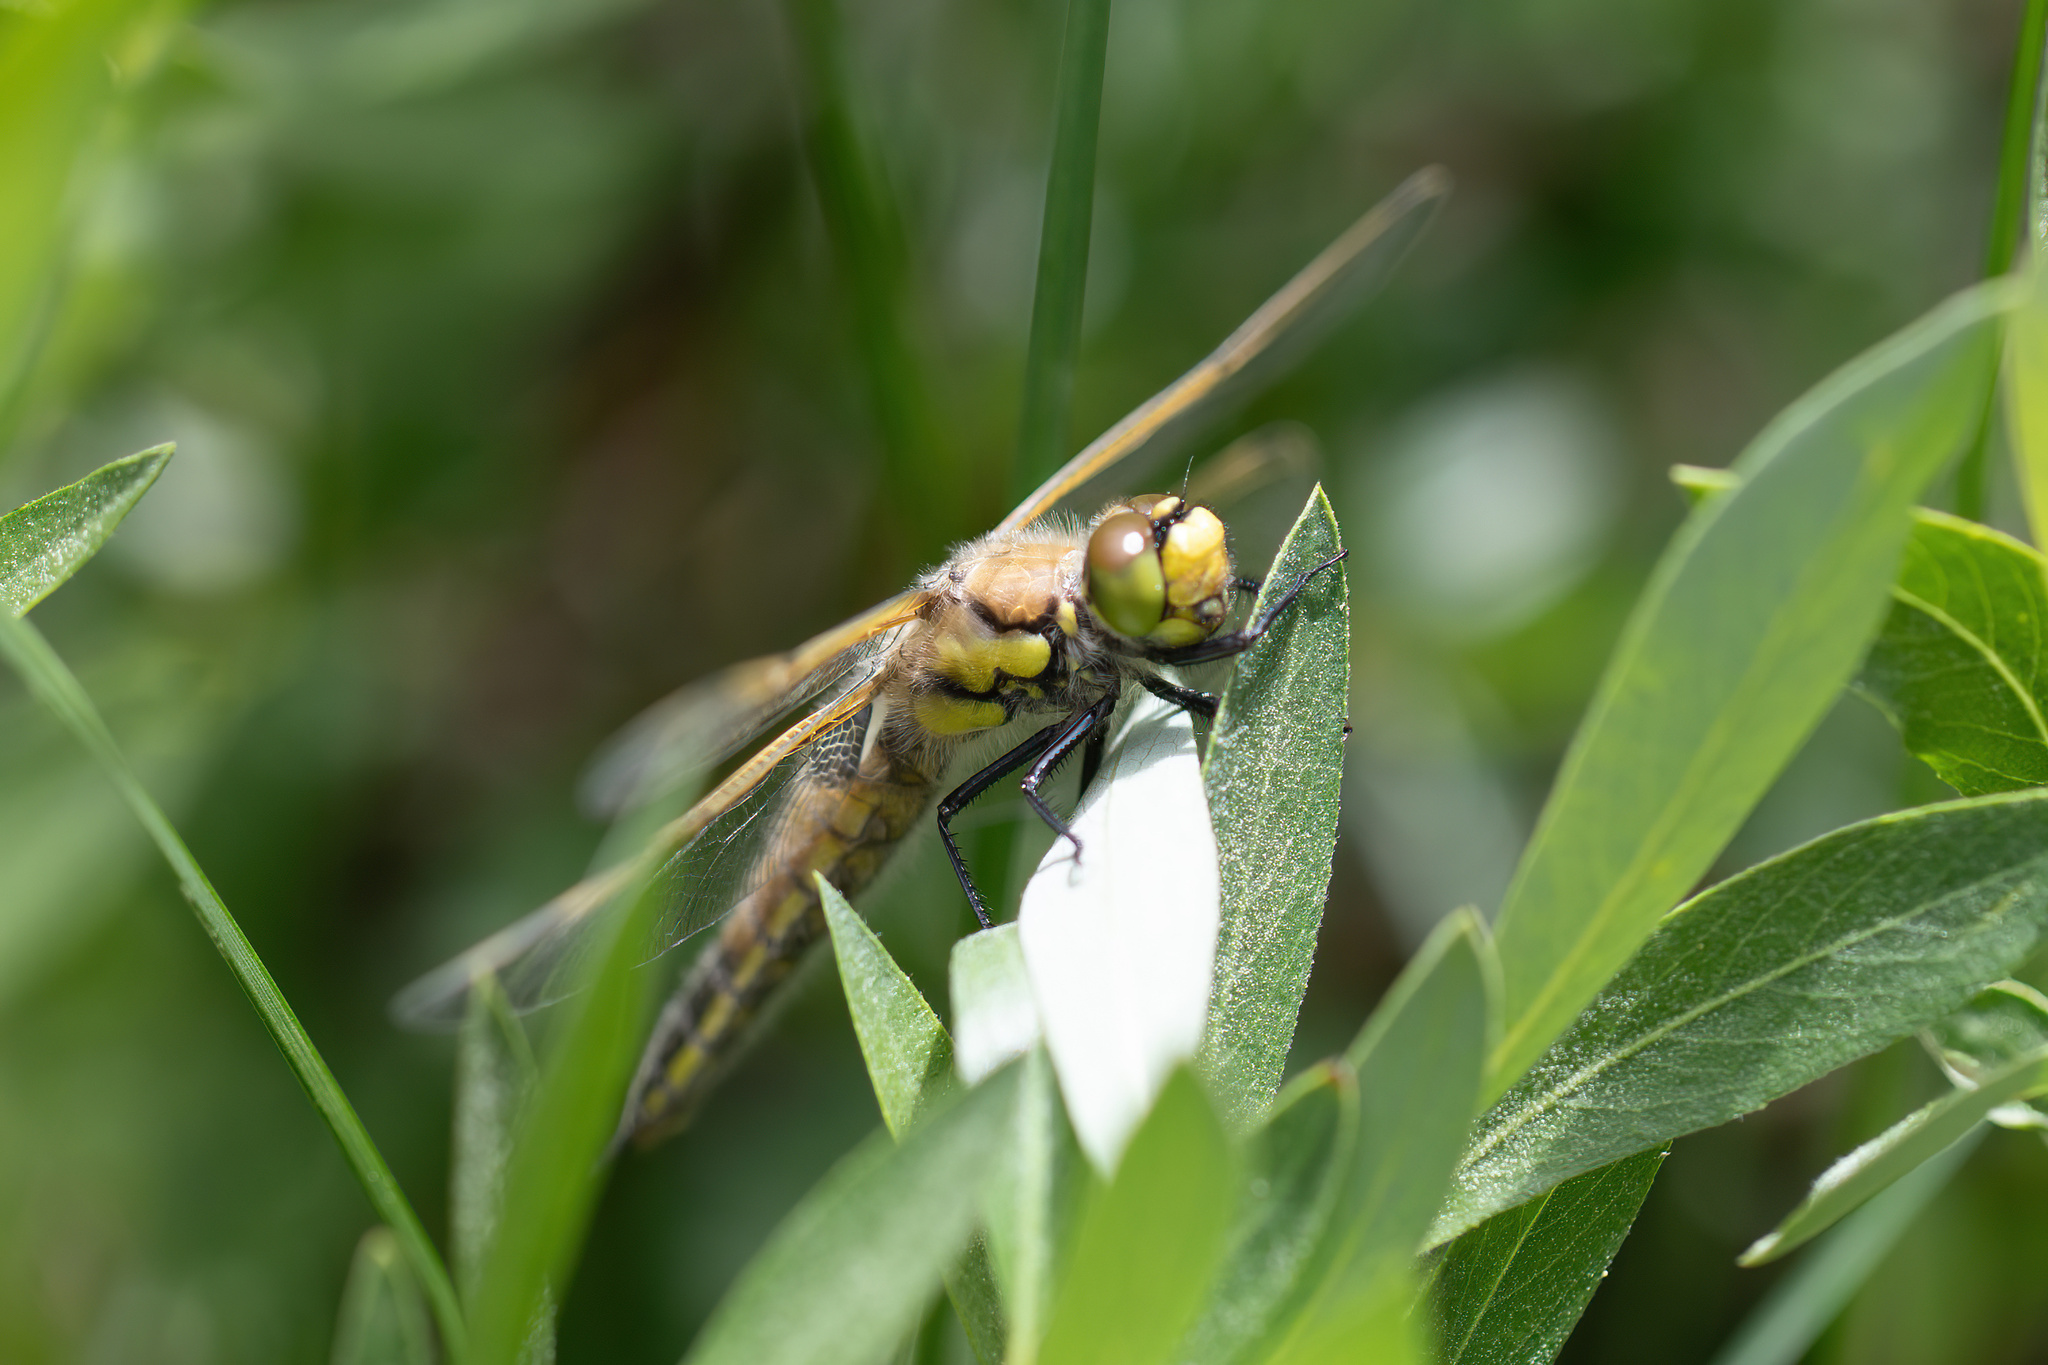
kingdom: Animalia
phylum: Arthropoda
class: Insecta
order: Odonata
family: Libellulidae
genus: Libellula
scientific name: Libellula quadrimaculata
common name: Four-spotted chaser
